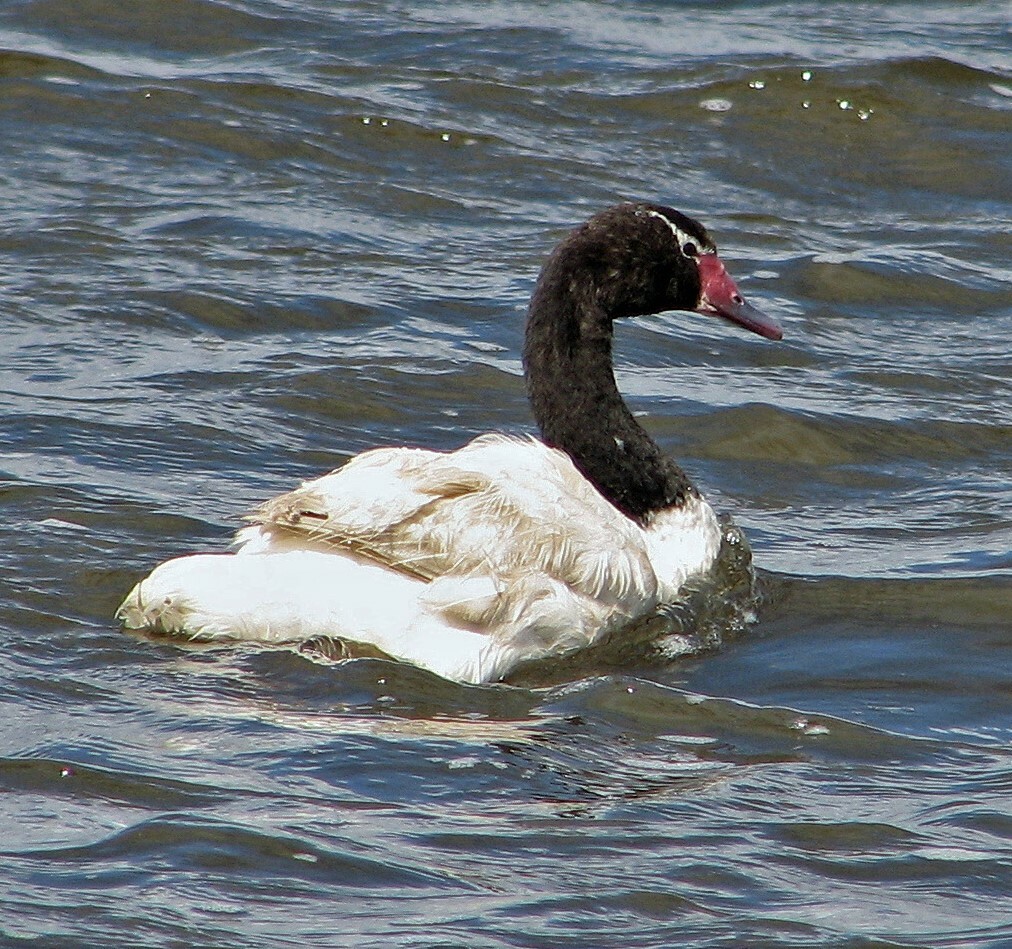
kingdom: Animalia
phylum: Chordata
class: Aves
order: Anseriformes
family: Anatidae
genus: Cygnus
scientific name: Cygnus melancoryphus
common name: Black-necked swan
